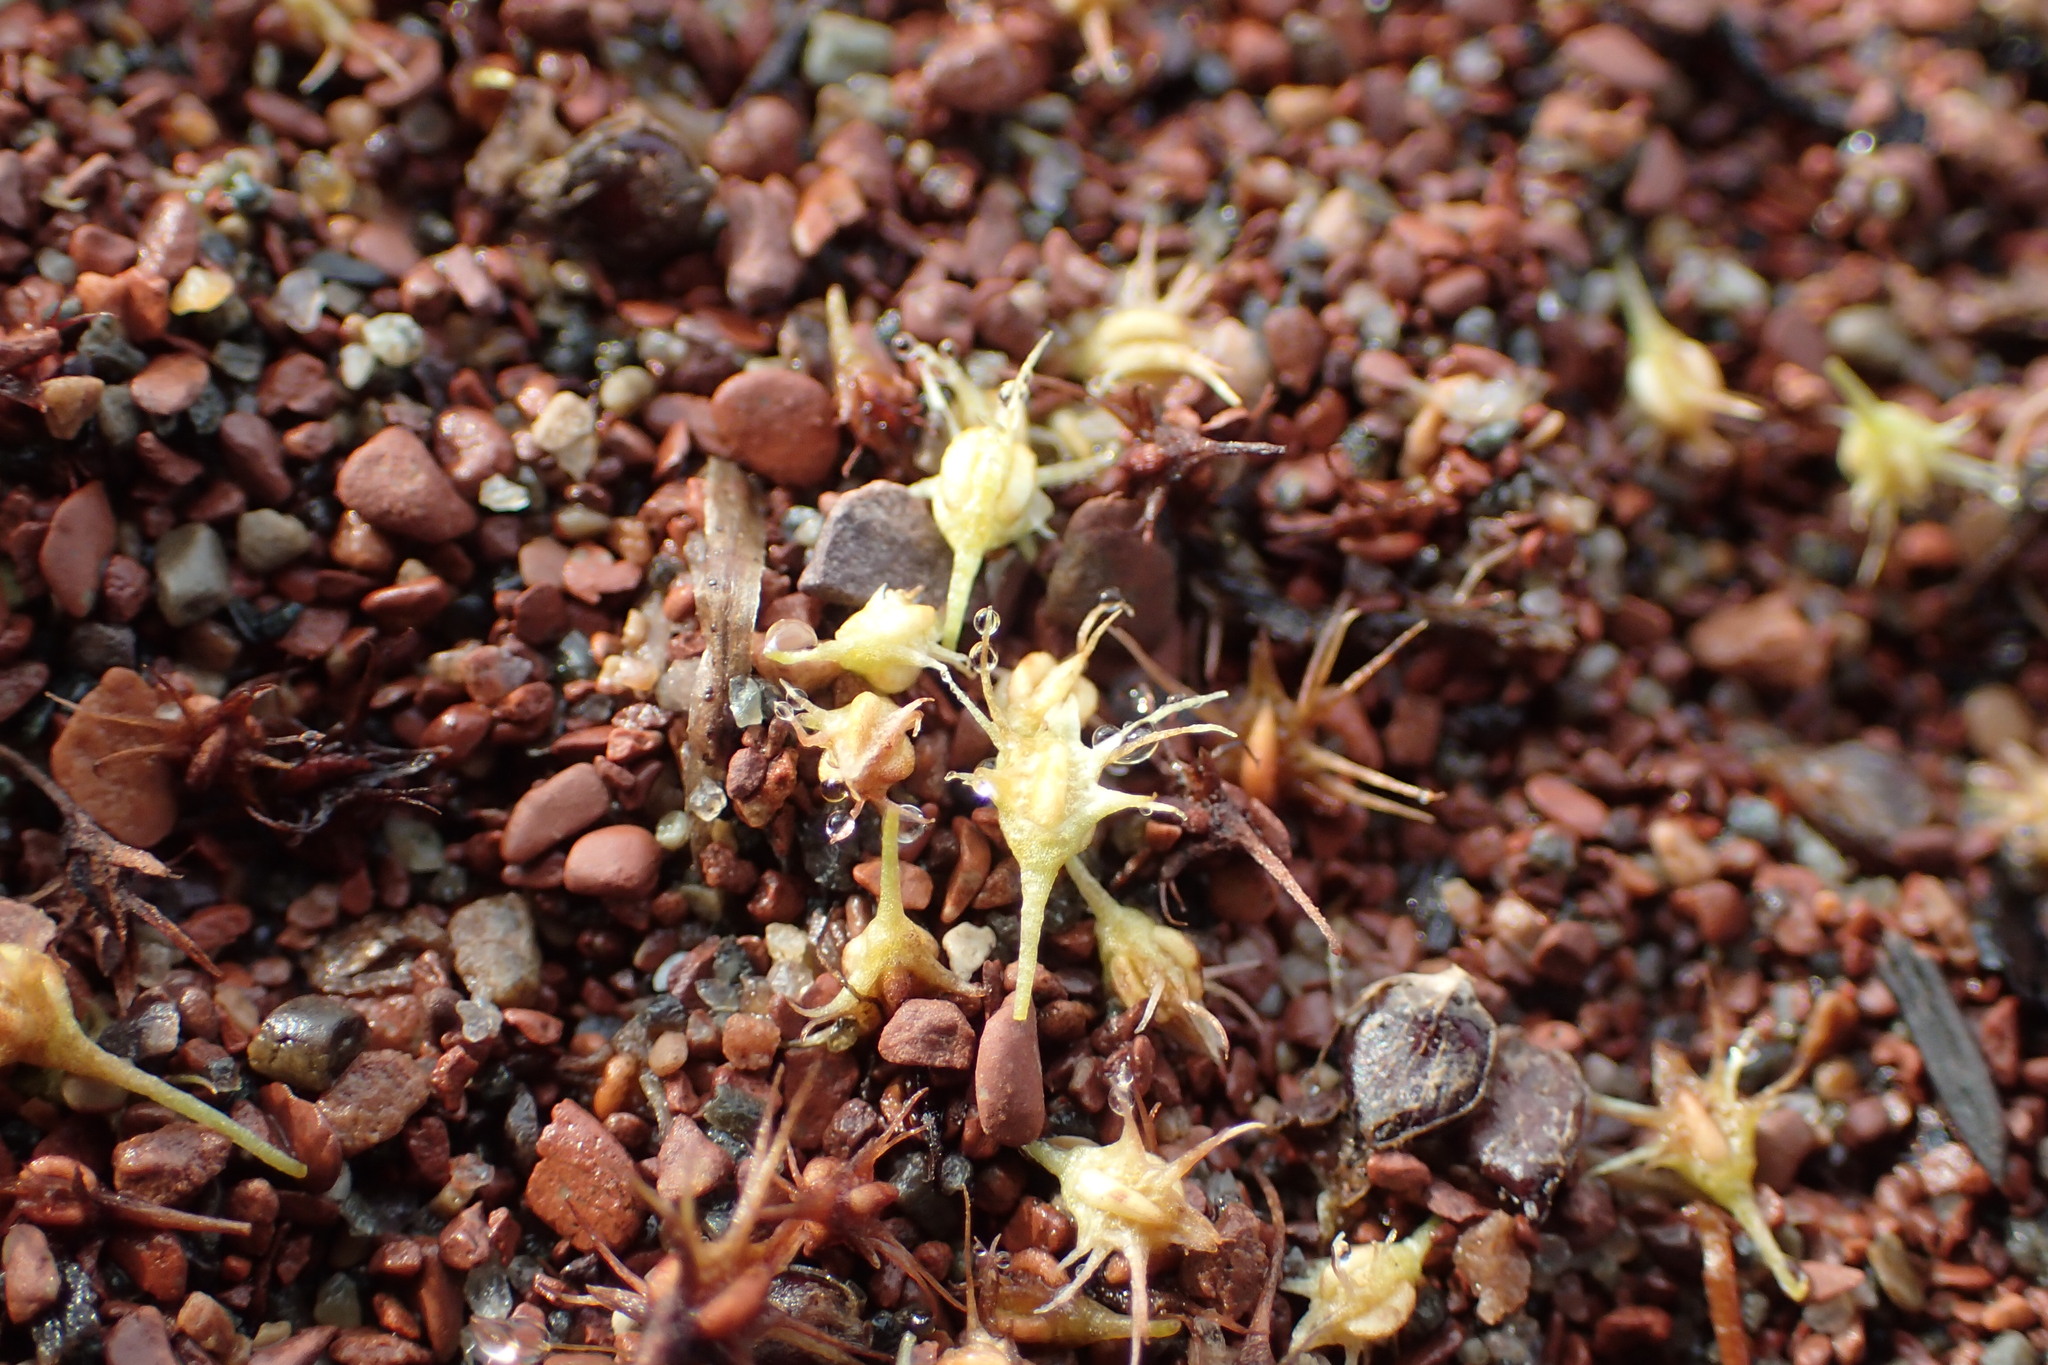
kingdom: Plantae
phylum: Tracheophyta
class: Magnoliopsida
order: Caryophyllales
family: Polygonaceae
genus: Rumex
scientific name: Rumex fueginus
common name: American golden dock
